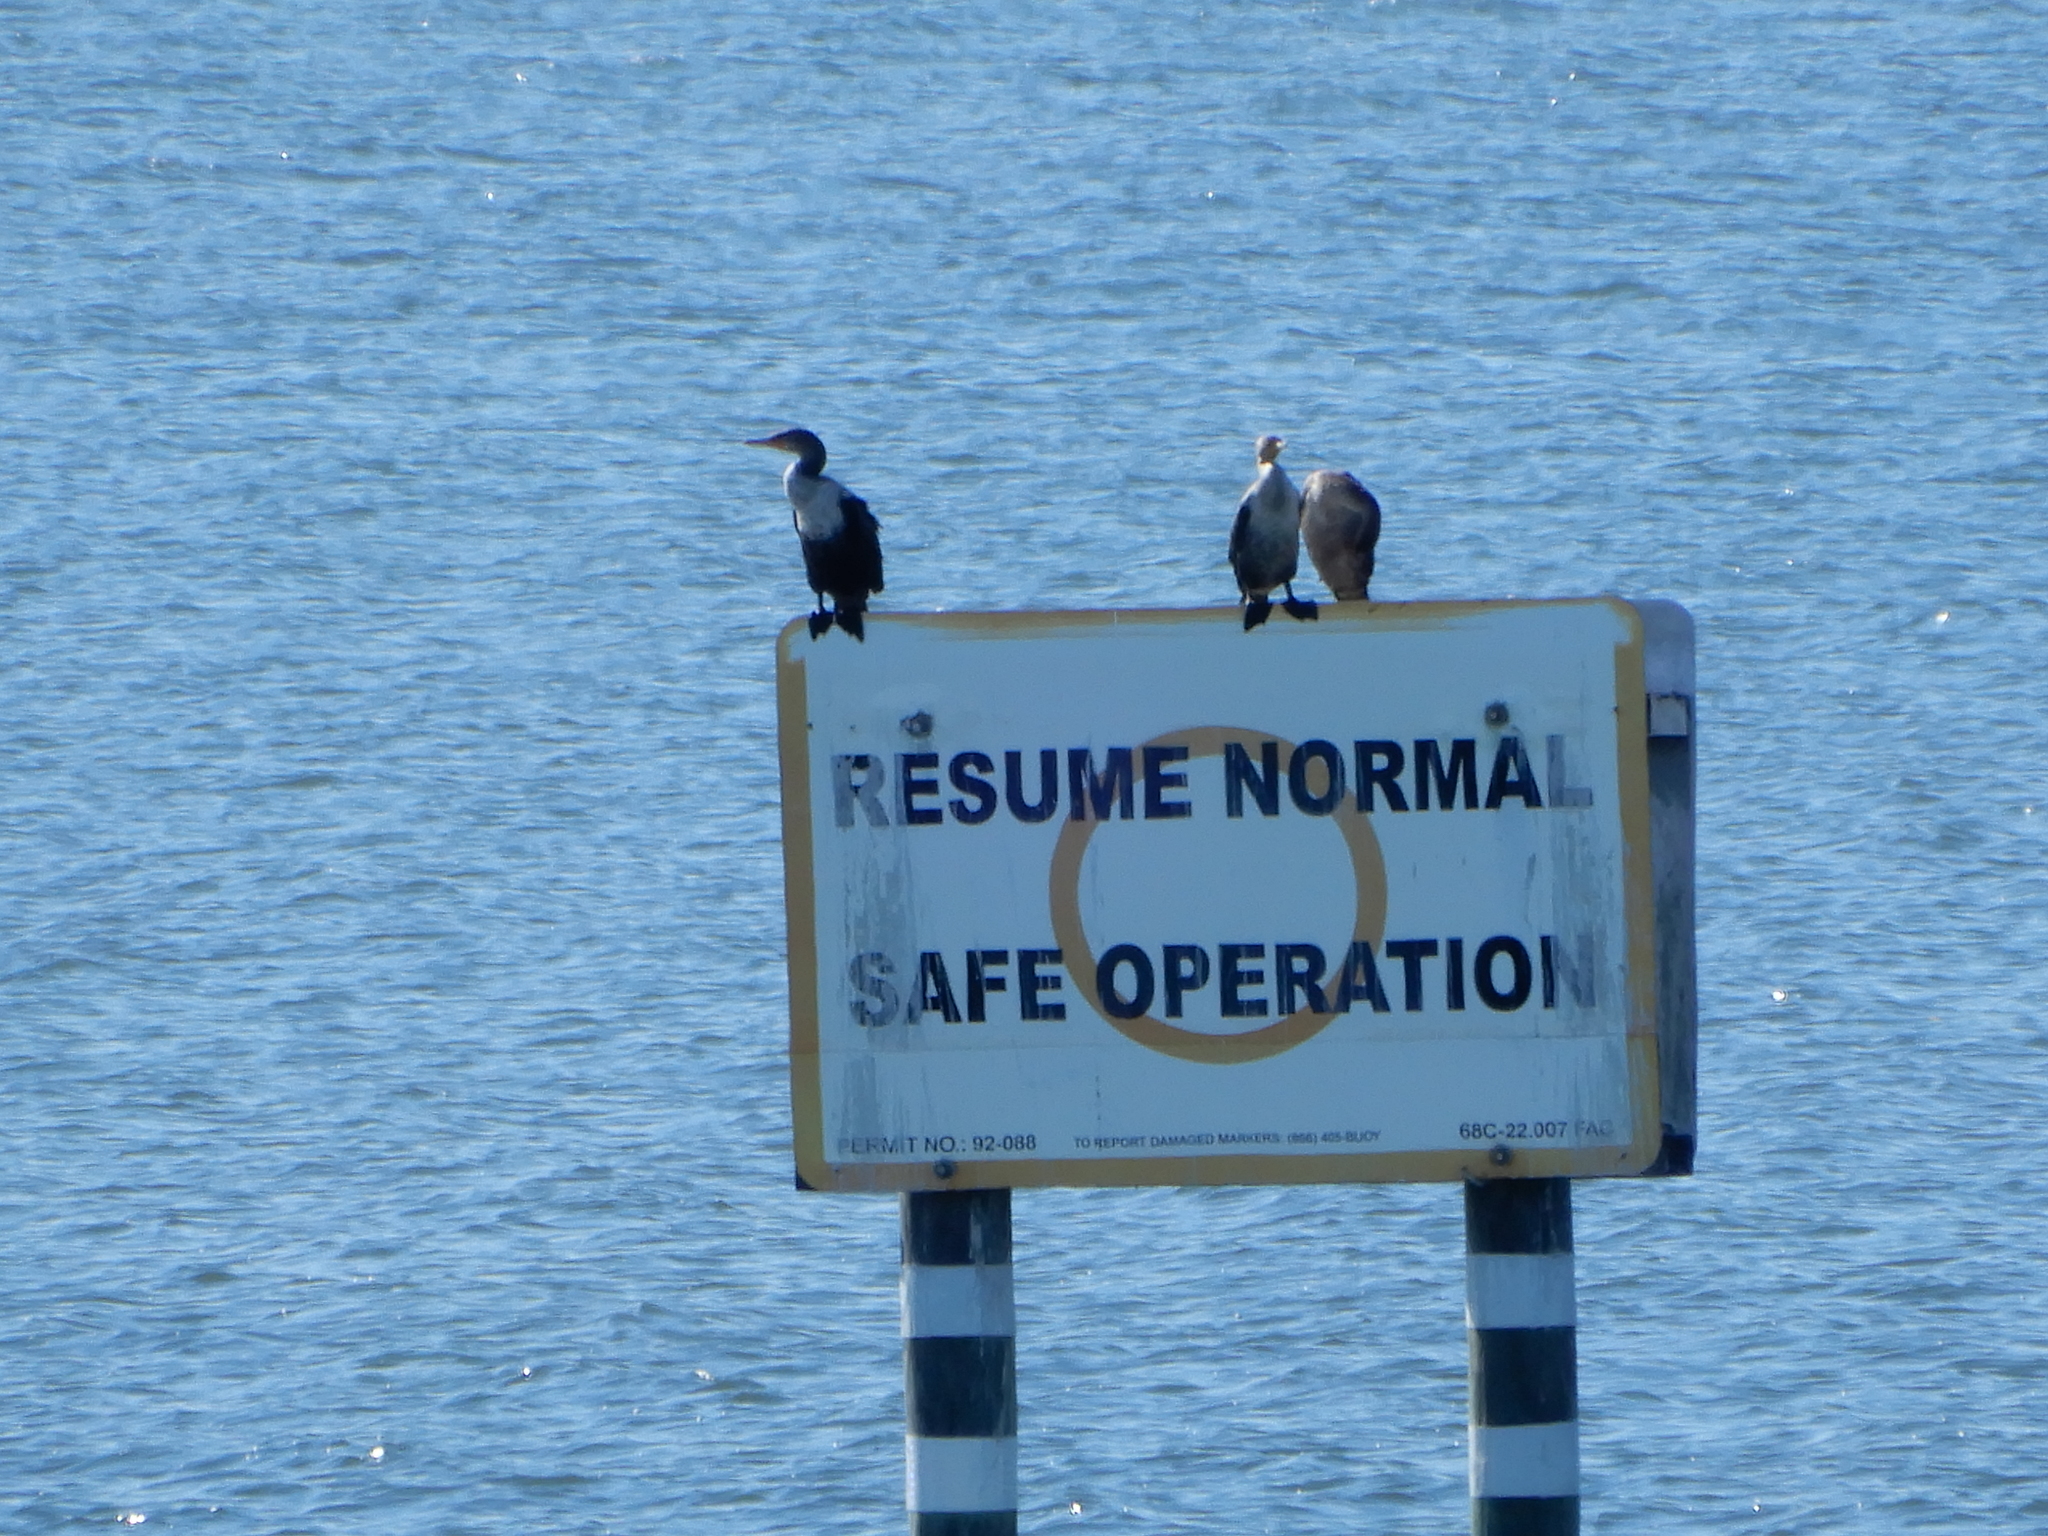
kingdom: Animalia
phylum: Chordata
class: Aves
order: Suliformes
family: Phalacrocoracidae
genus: Phalacrocorax
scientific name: Phalacrocorax auritus
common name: Double-crested cormorant
